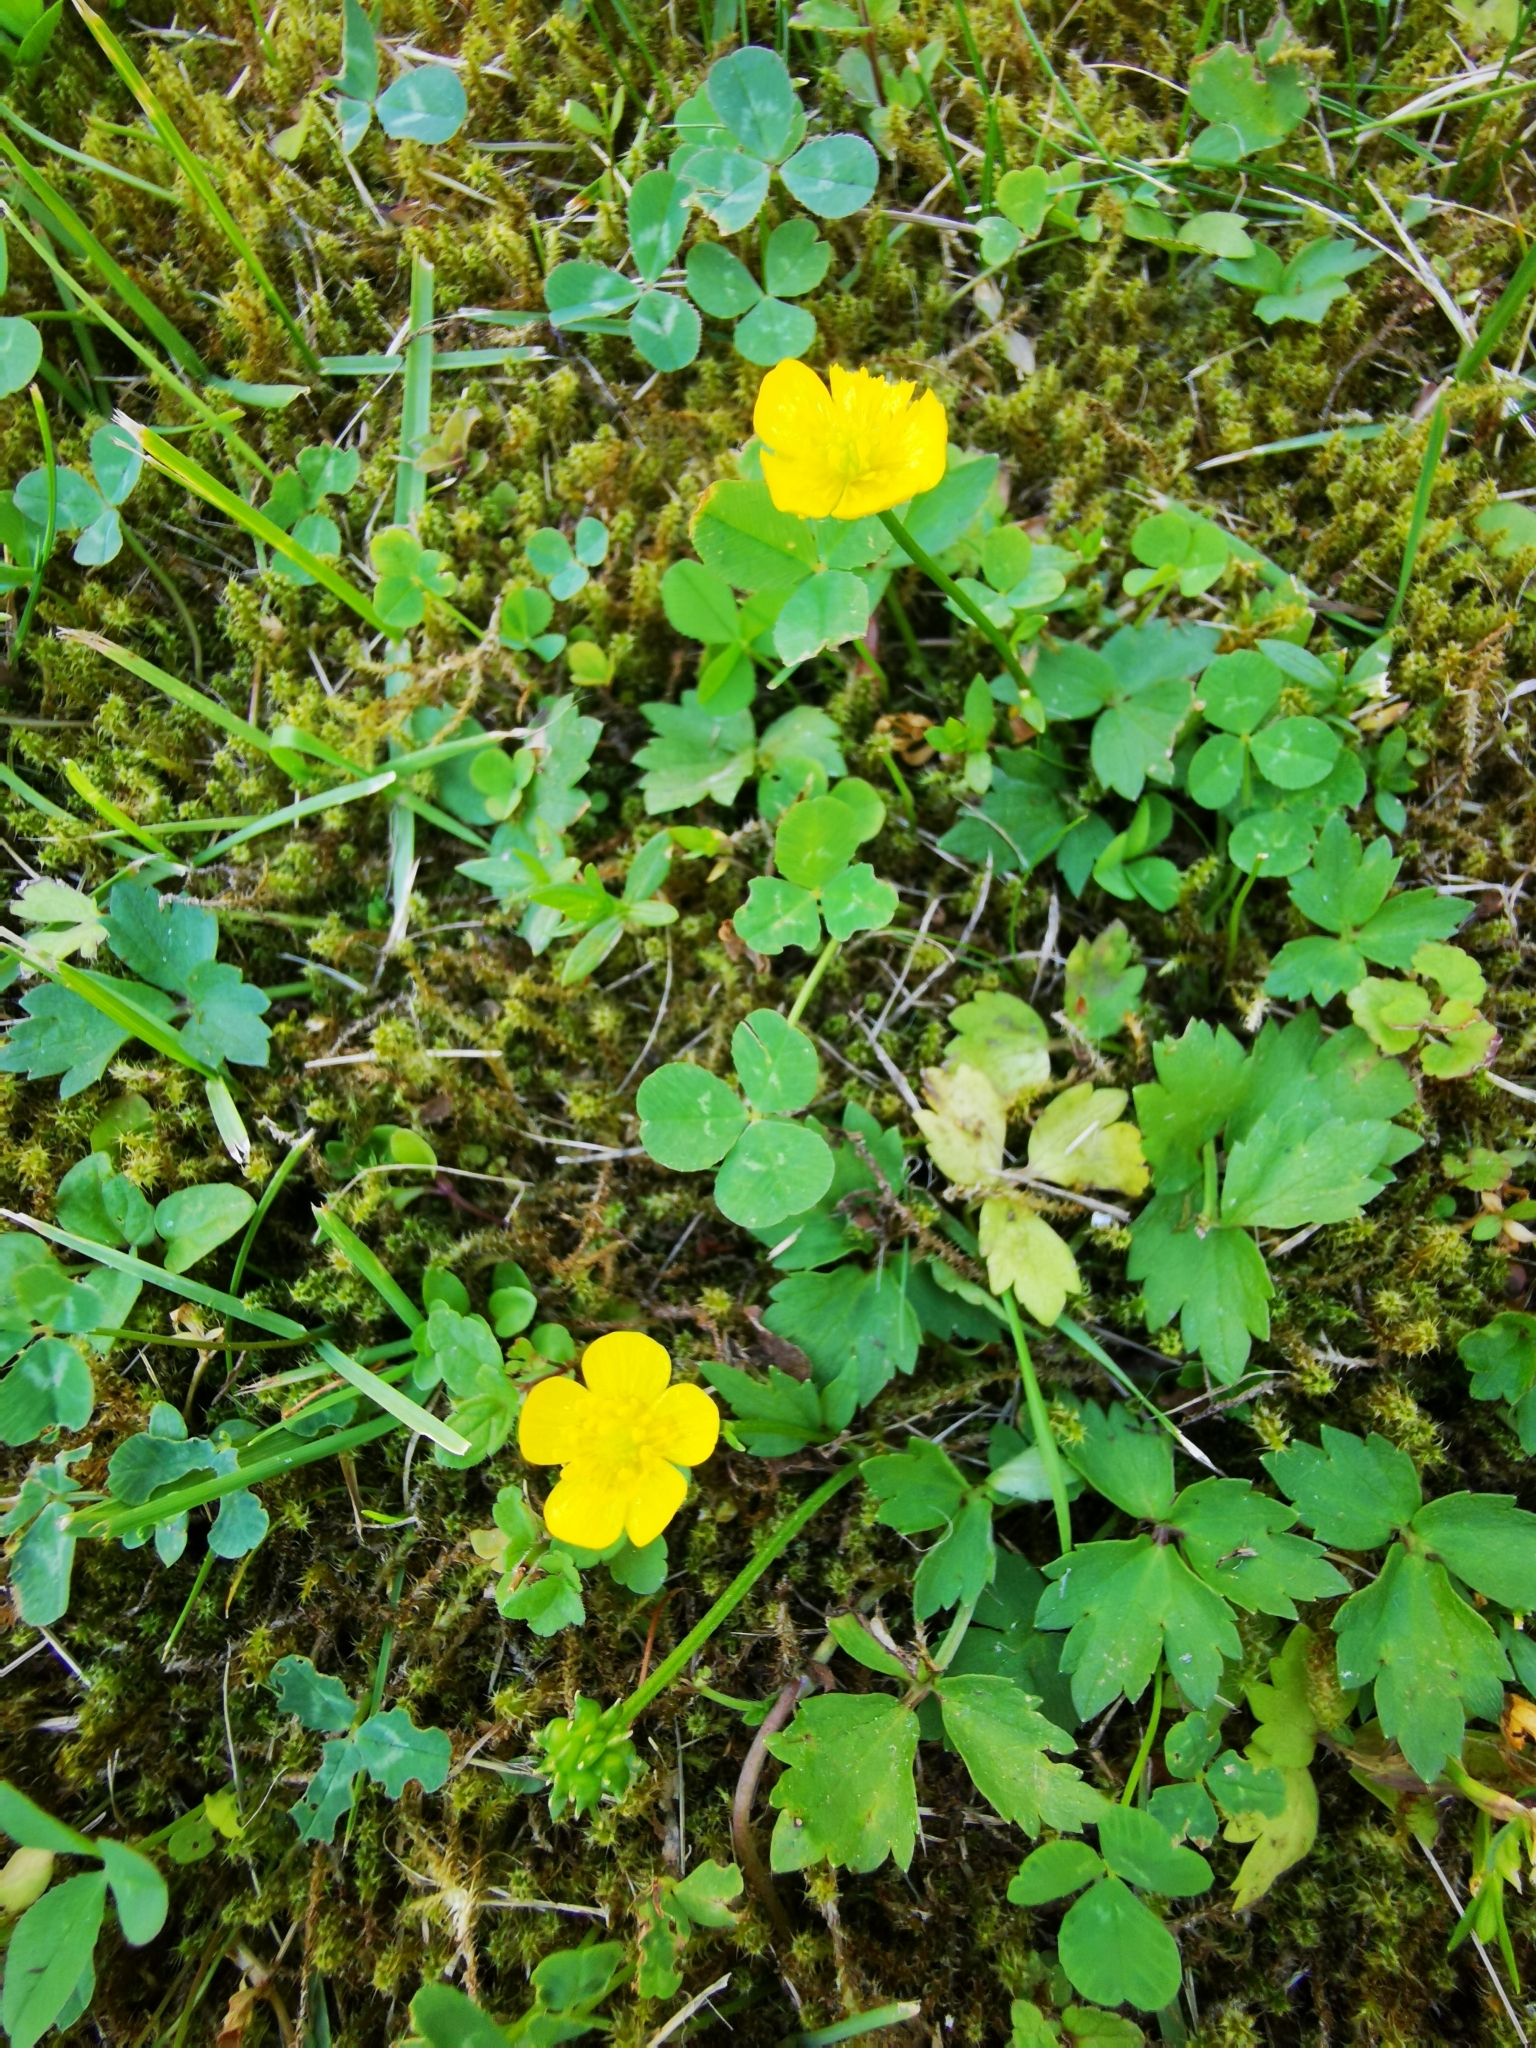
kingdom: Plantae
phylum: Tracheophyta
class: Magnoliopsida
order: Ranunculales
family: Ranunculaceae
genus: Ranunculus
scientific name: Ranunculus repens
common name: Creeping buttercup
